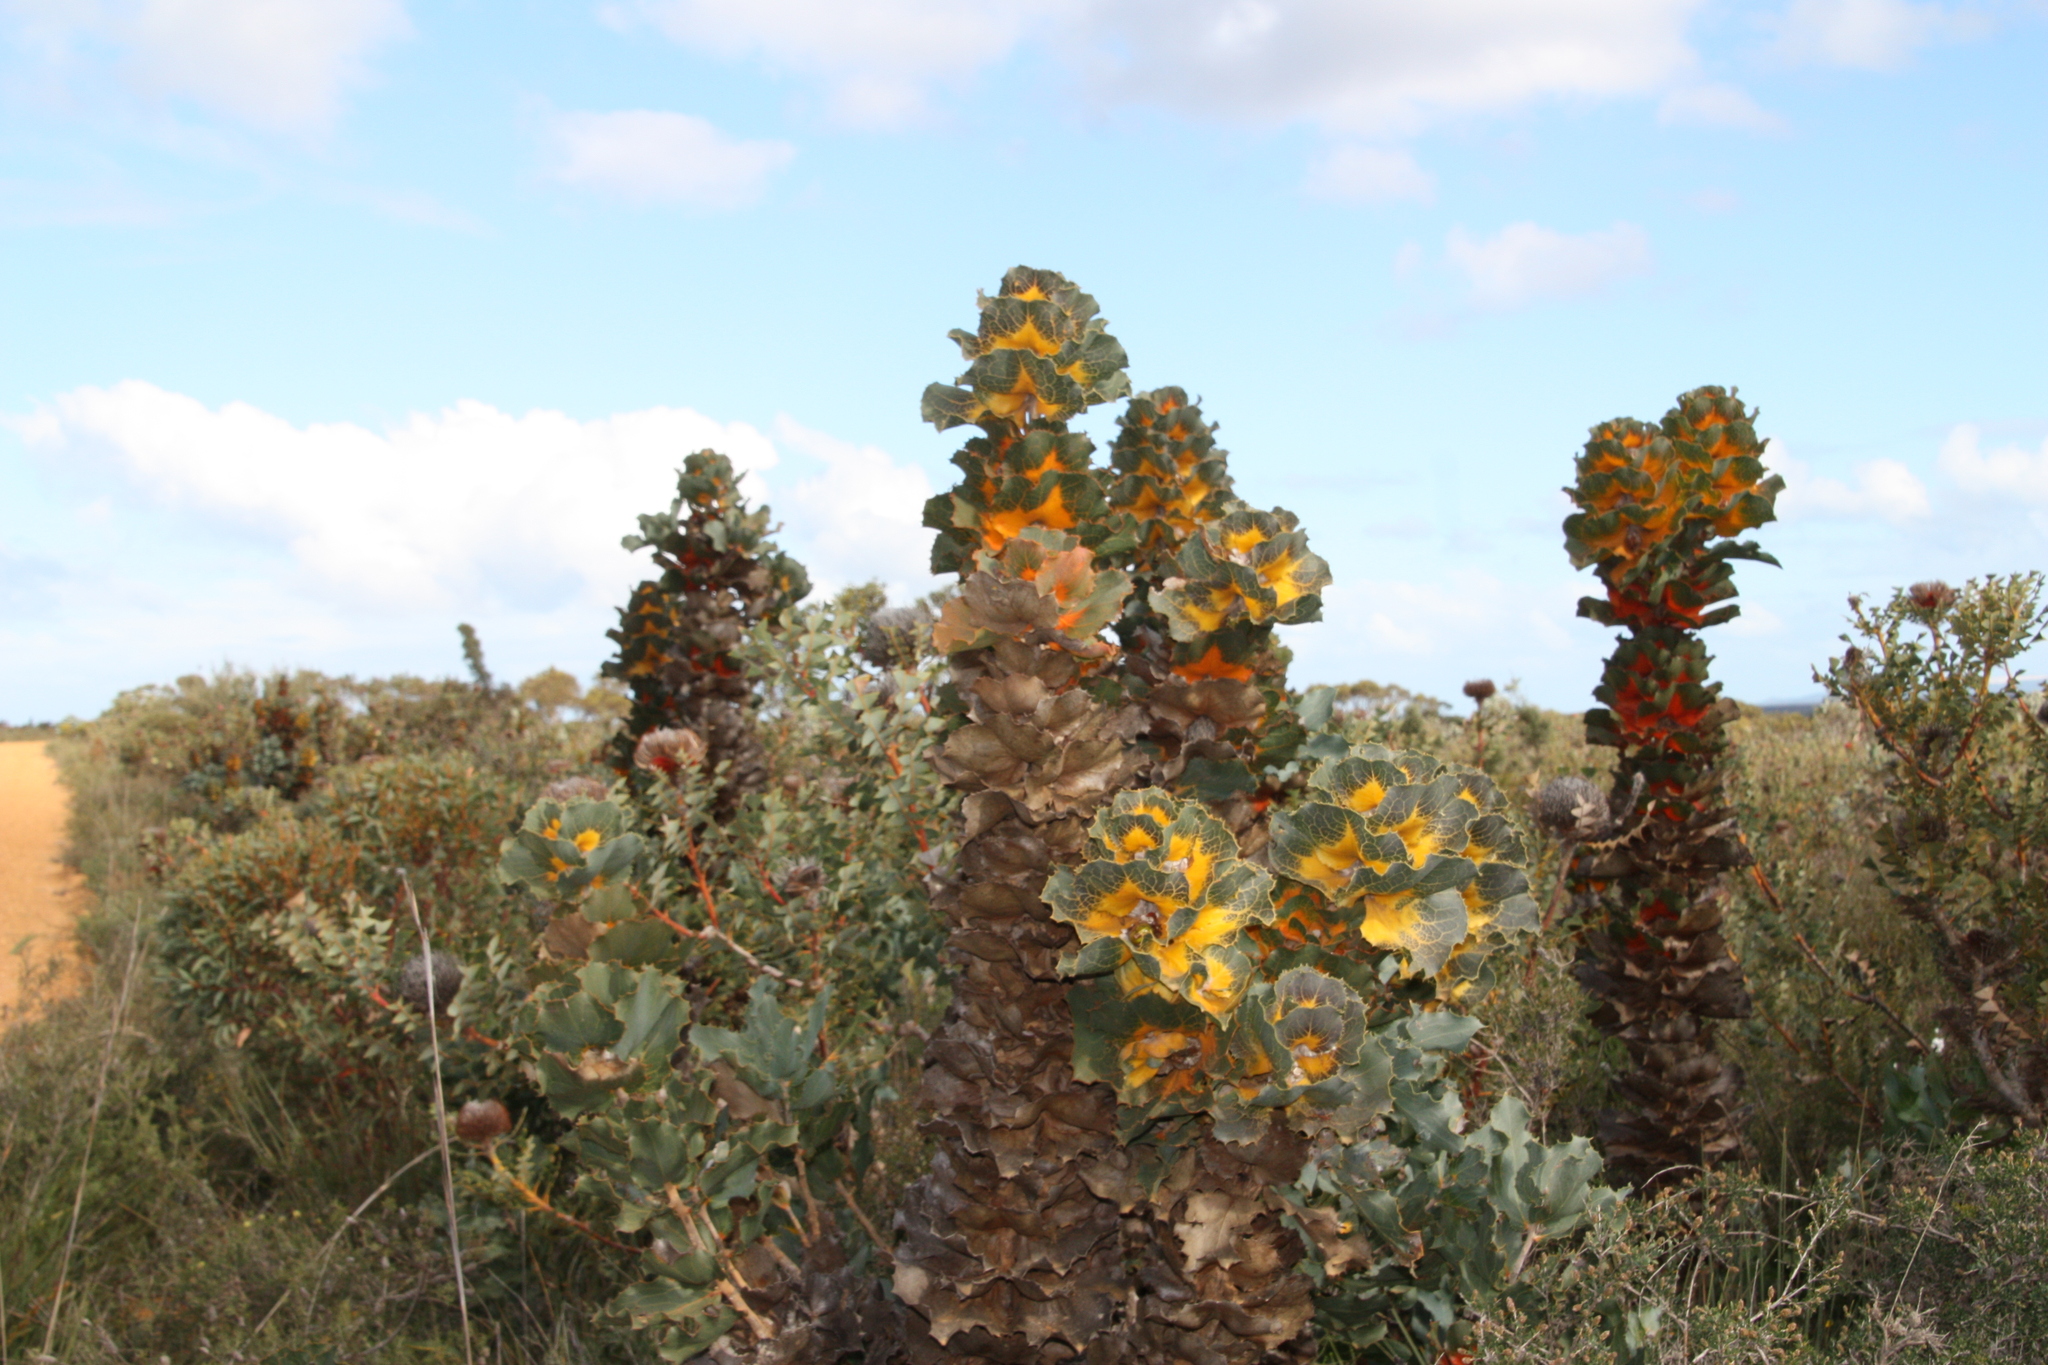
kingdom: Plantae
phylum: Tracheophyta
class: Magnoliopsida
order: Proteales
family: Proteaceae
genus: Hakea
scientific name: Hakea victoria
